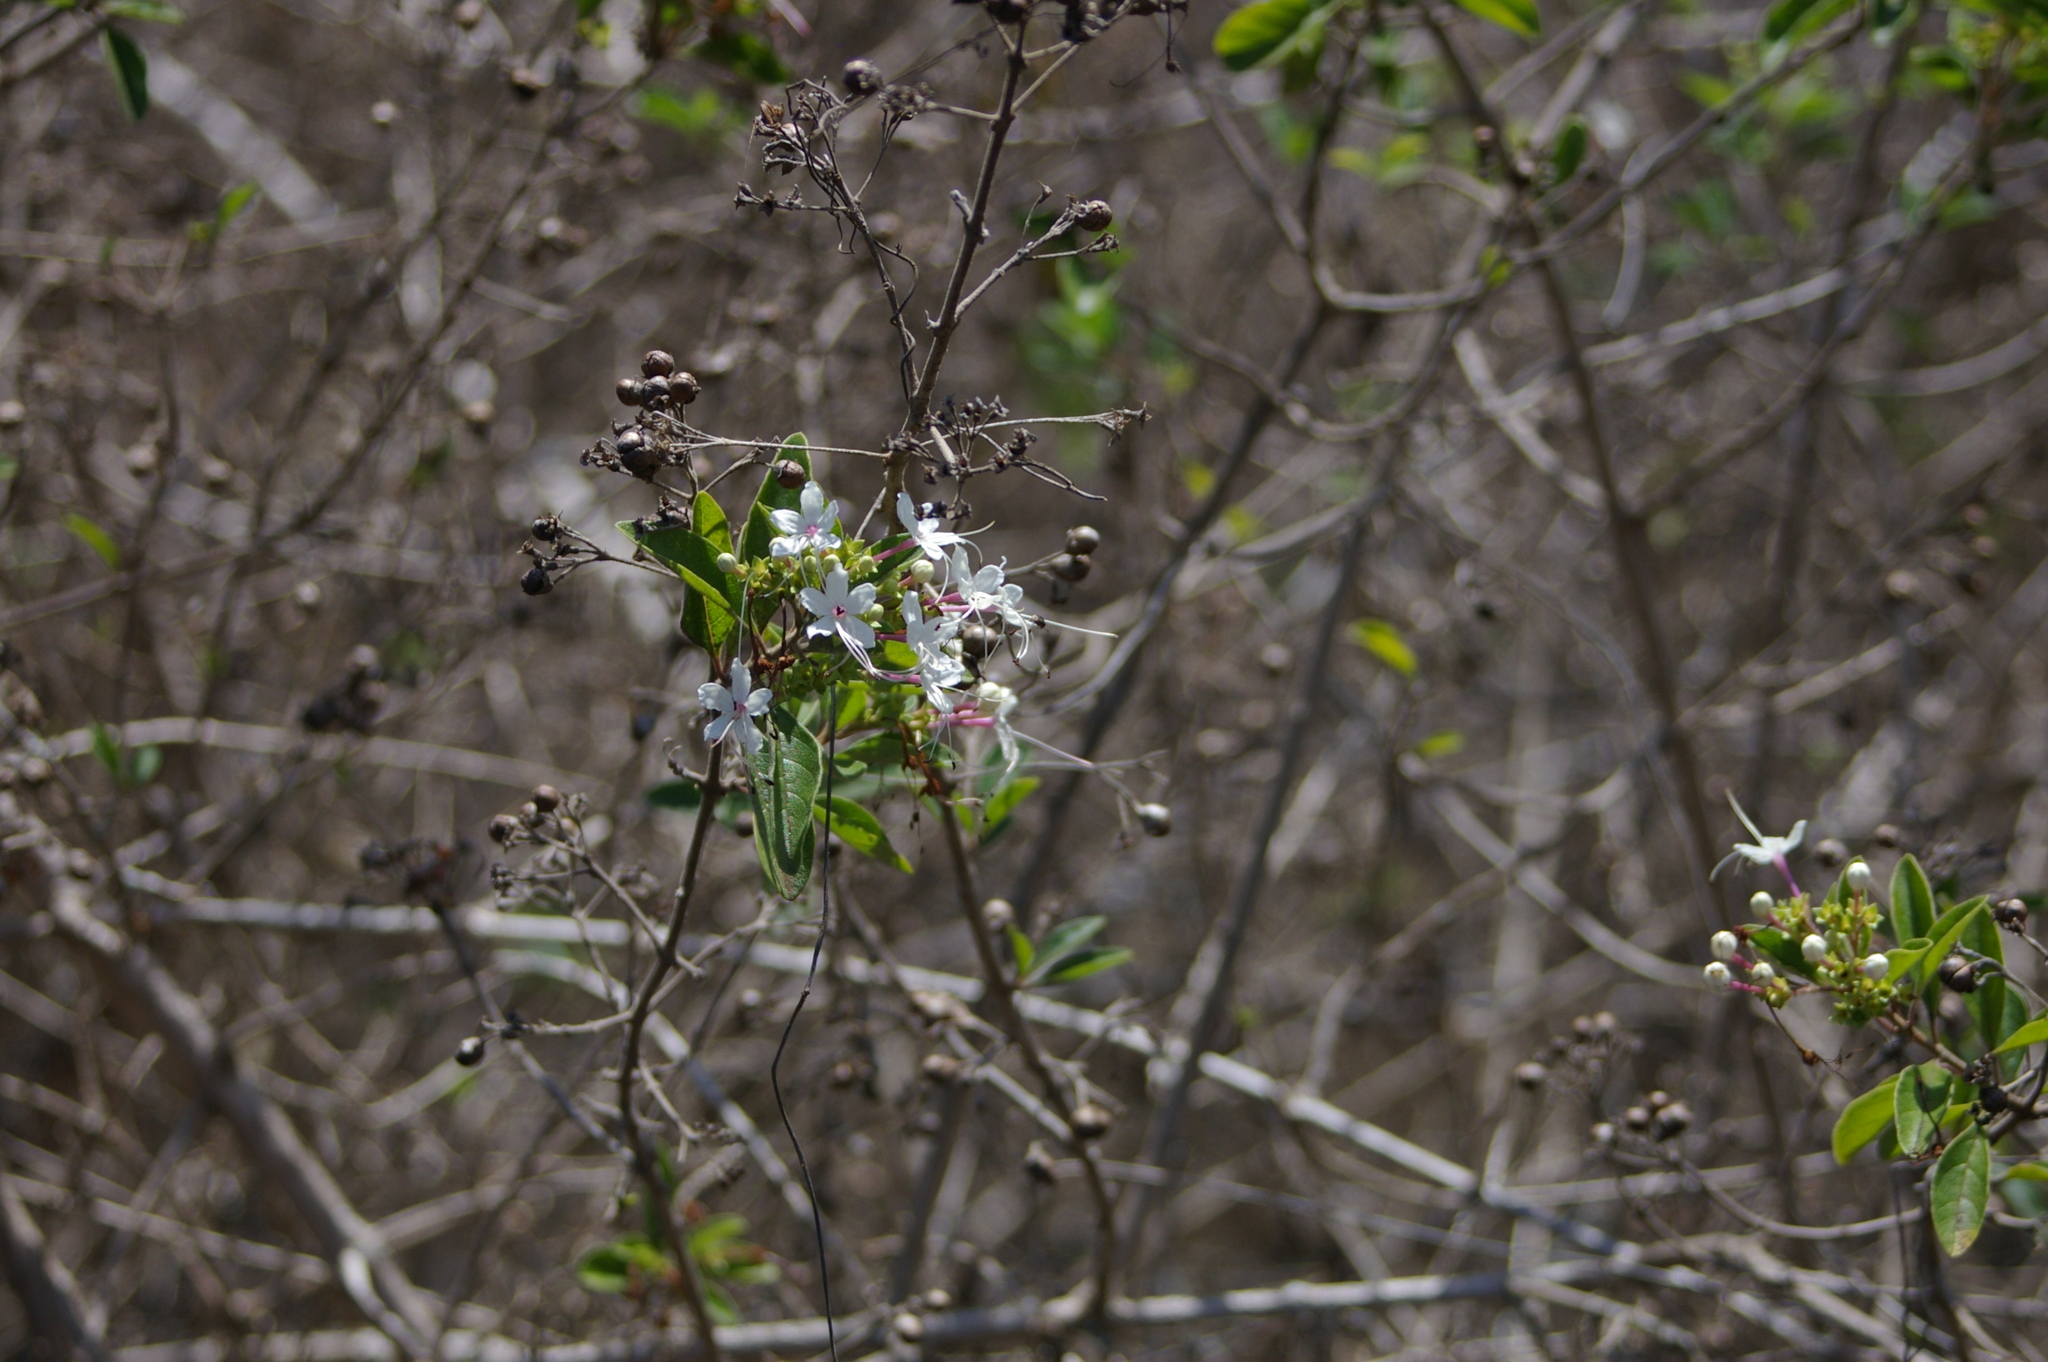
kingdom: Plantae
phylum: Tracheophyta
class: Magnoliopsida
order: Lamiales
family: Lamiaceae
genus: Volkameria
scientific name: Volkameria mollis
